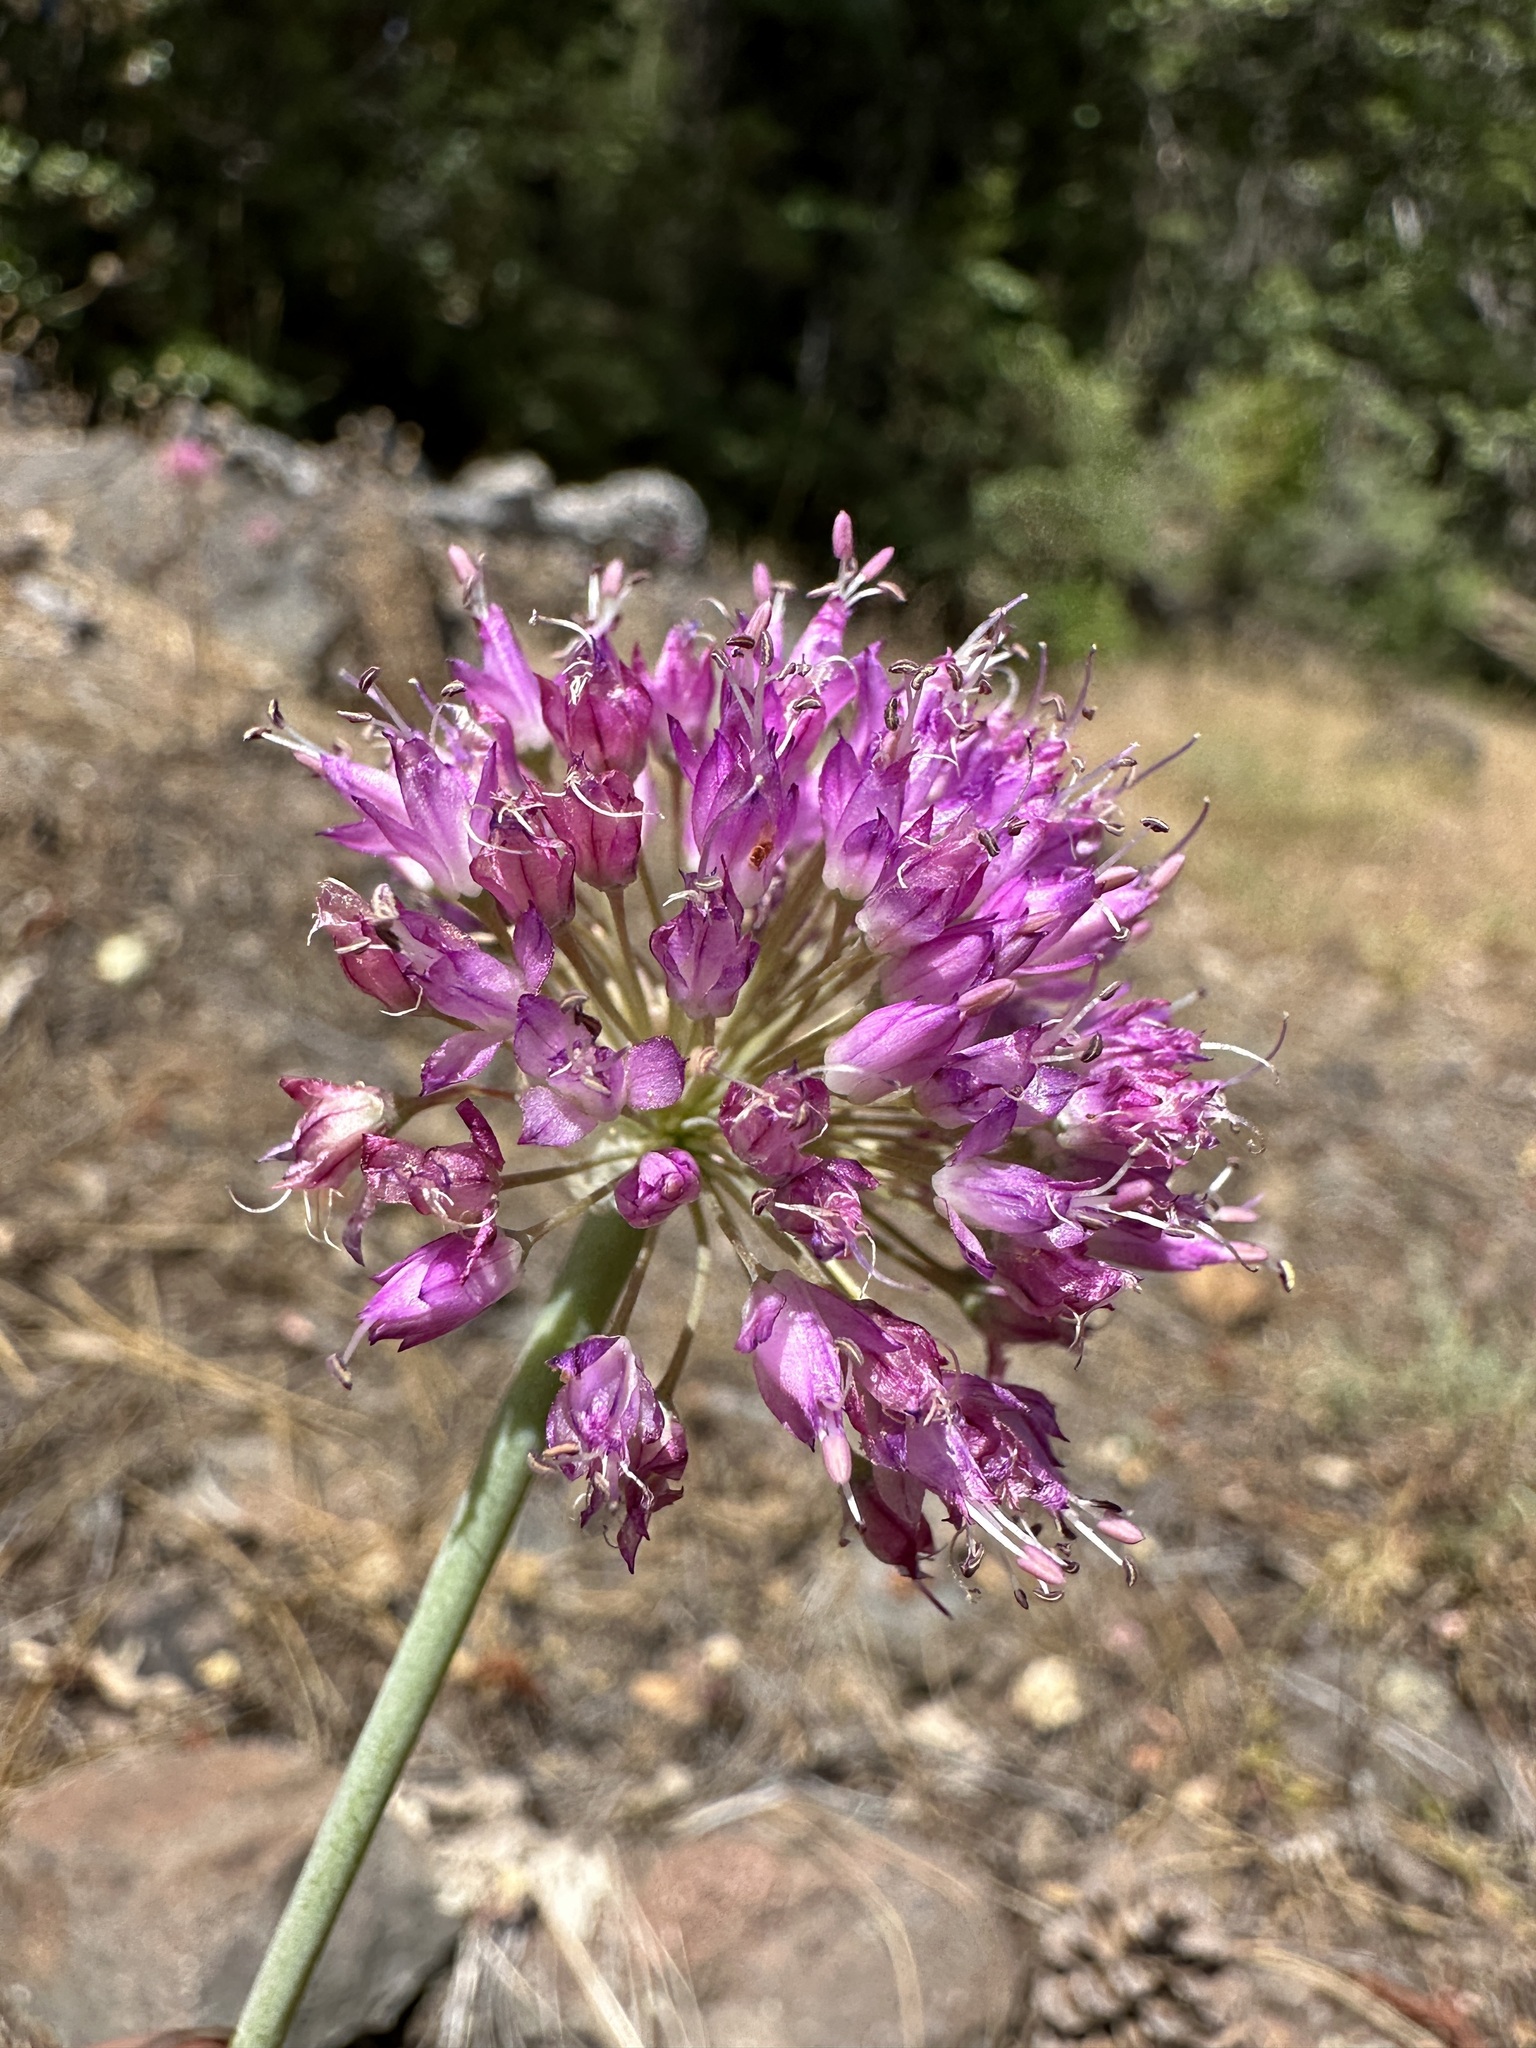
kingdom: Plantae
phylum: Tracheophyta
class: Liliopsida
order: Asparagales
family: Amaryllidaceae
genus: Allium
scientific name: Allium sanbornii
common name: Sanborn's onion
